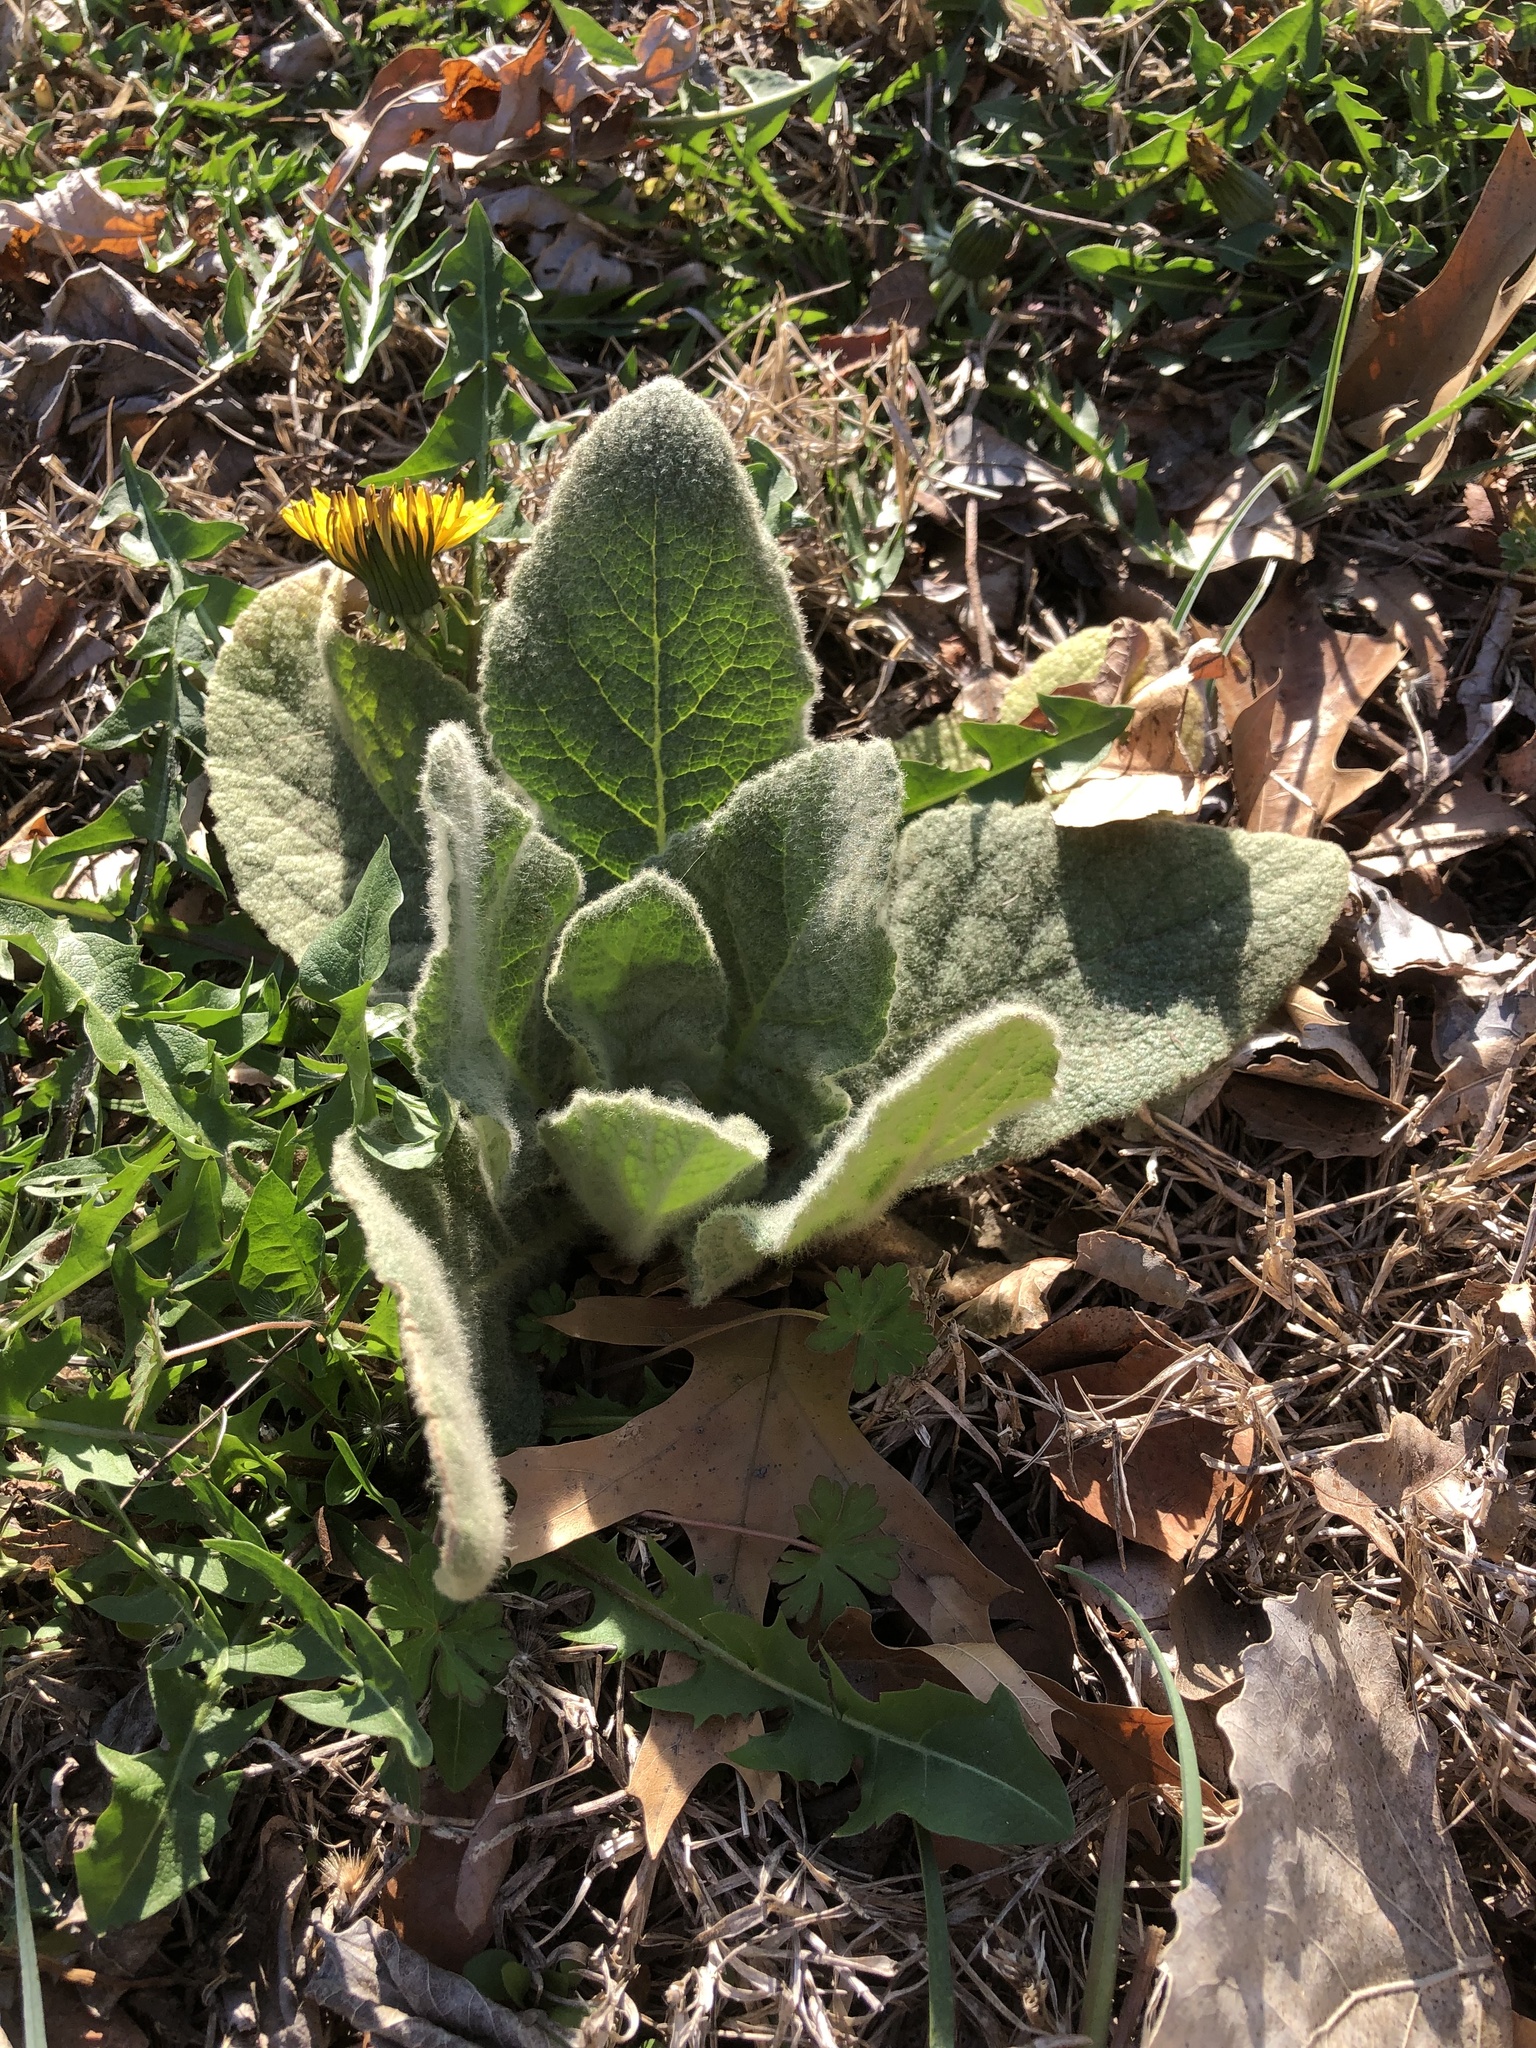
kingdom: Plantae
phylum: Tracheophyta
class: Magnoliopsida
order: Lamiales
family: Scrophulariaceae
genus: Verbascum
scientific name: Verbascum thapsus
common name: Common mullein
